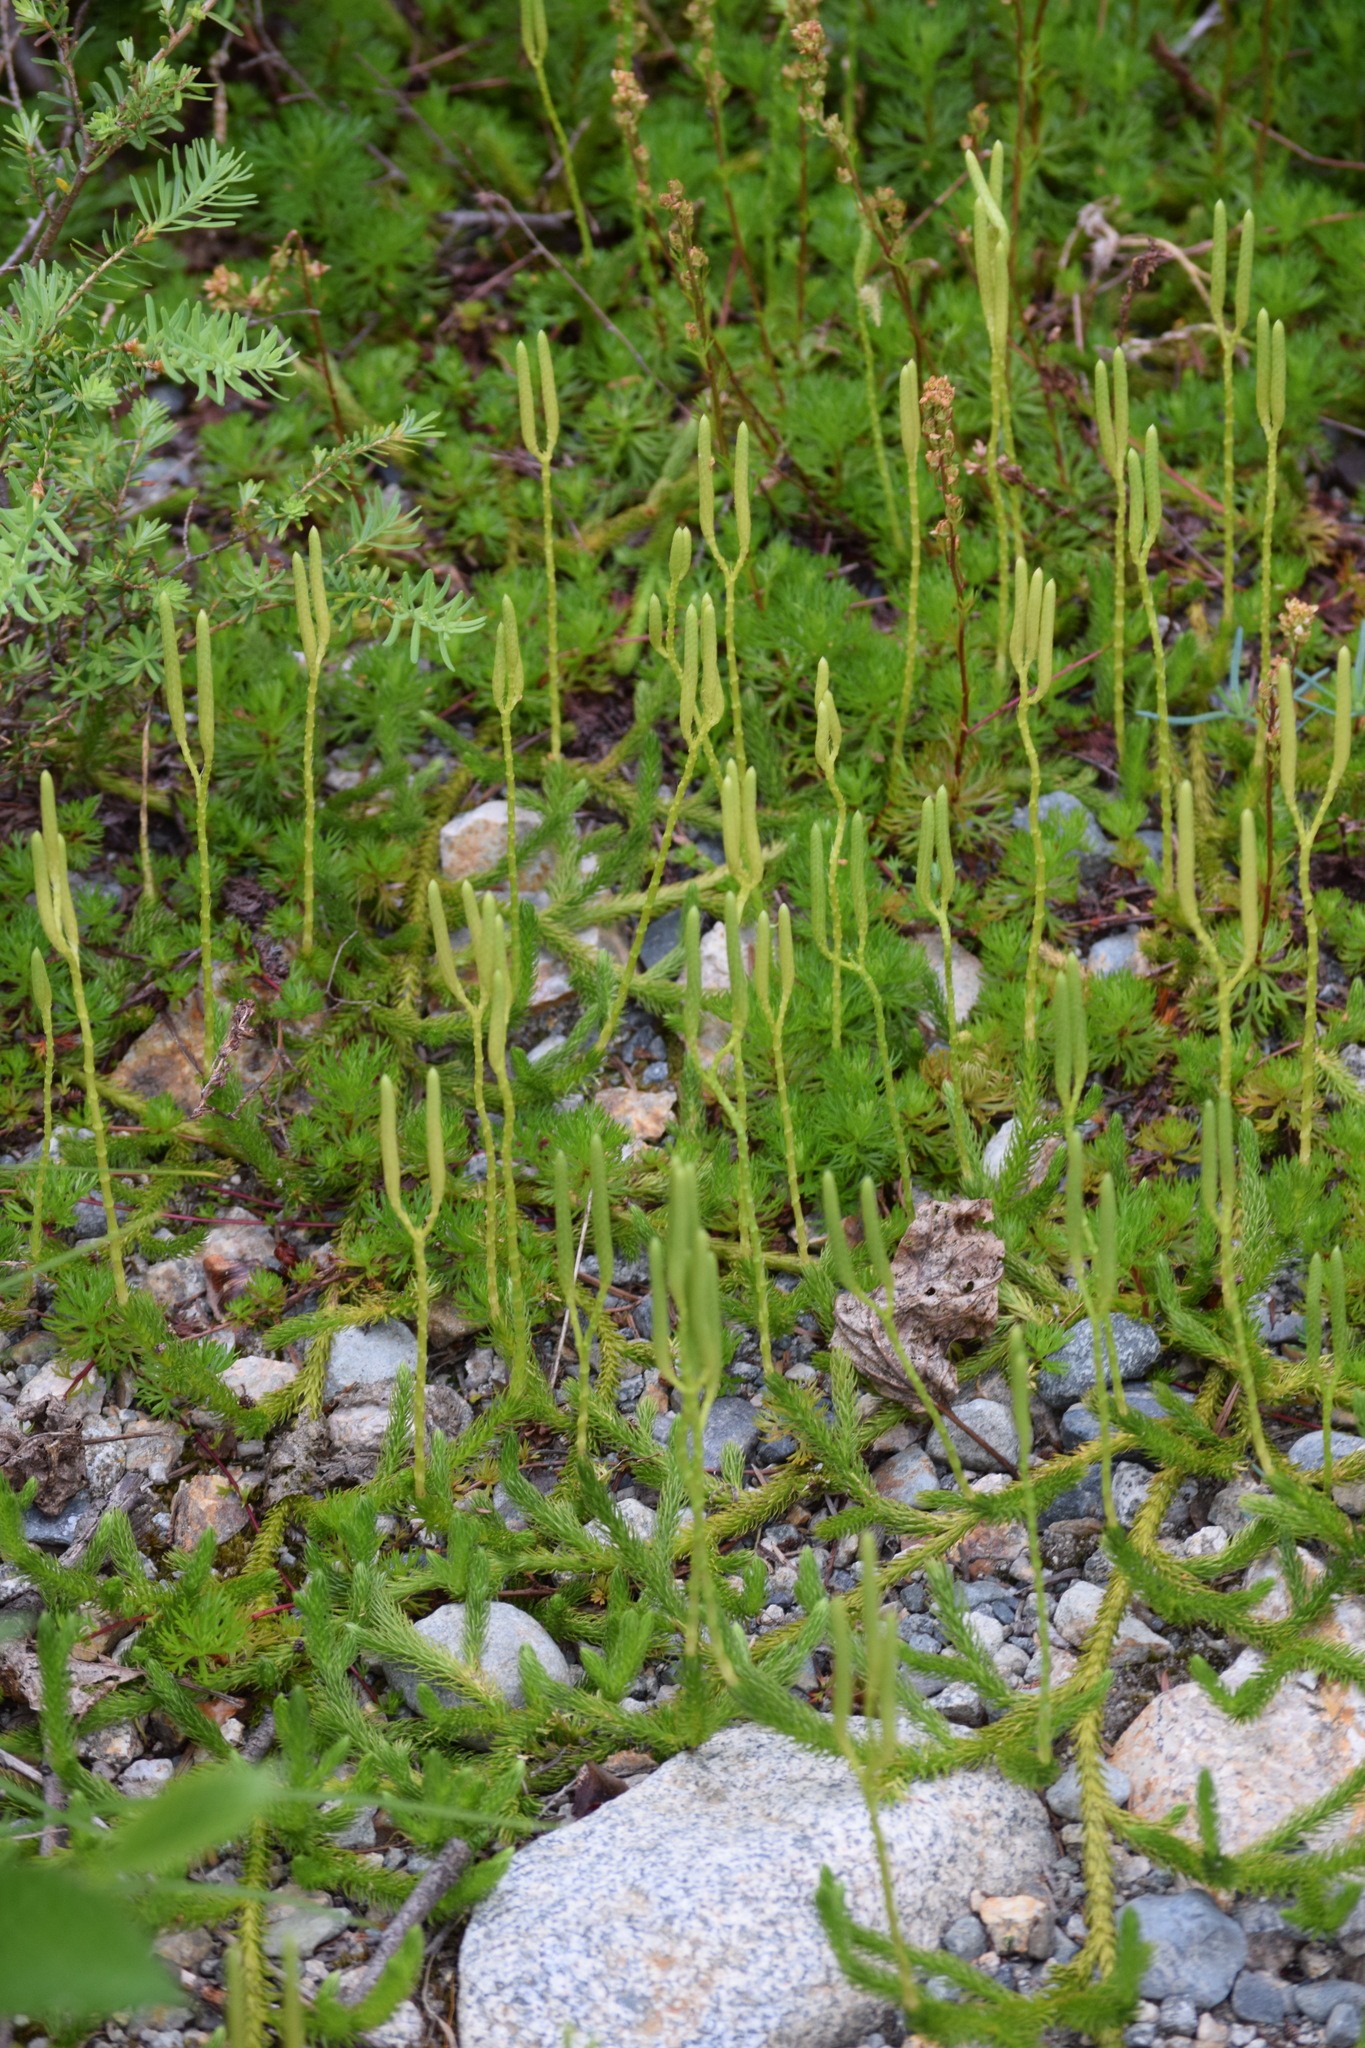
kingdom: Plantae
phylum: Tracheophyta
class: Lycopodiopsida
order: Lycopodiales
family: Lycopodiaceae
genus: Lycopodium
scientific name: Lycopodium clavatum
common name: Stag's-horn clubmoss
